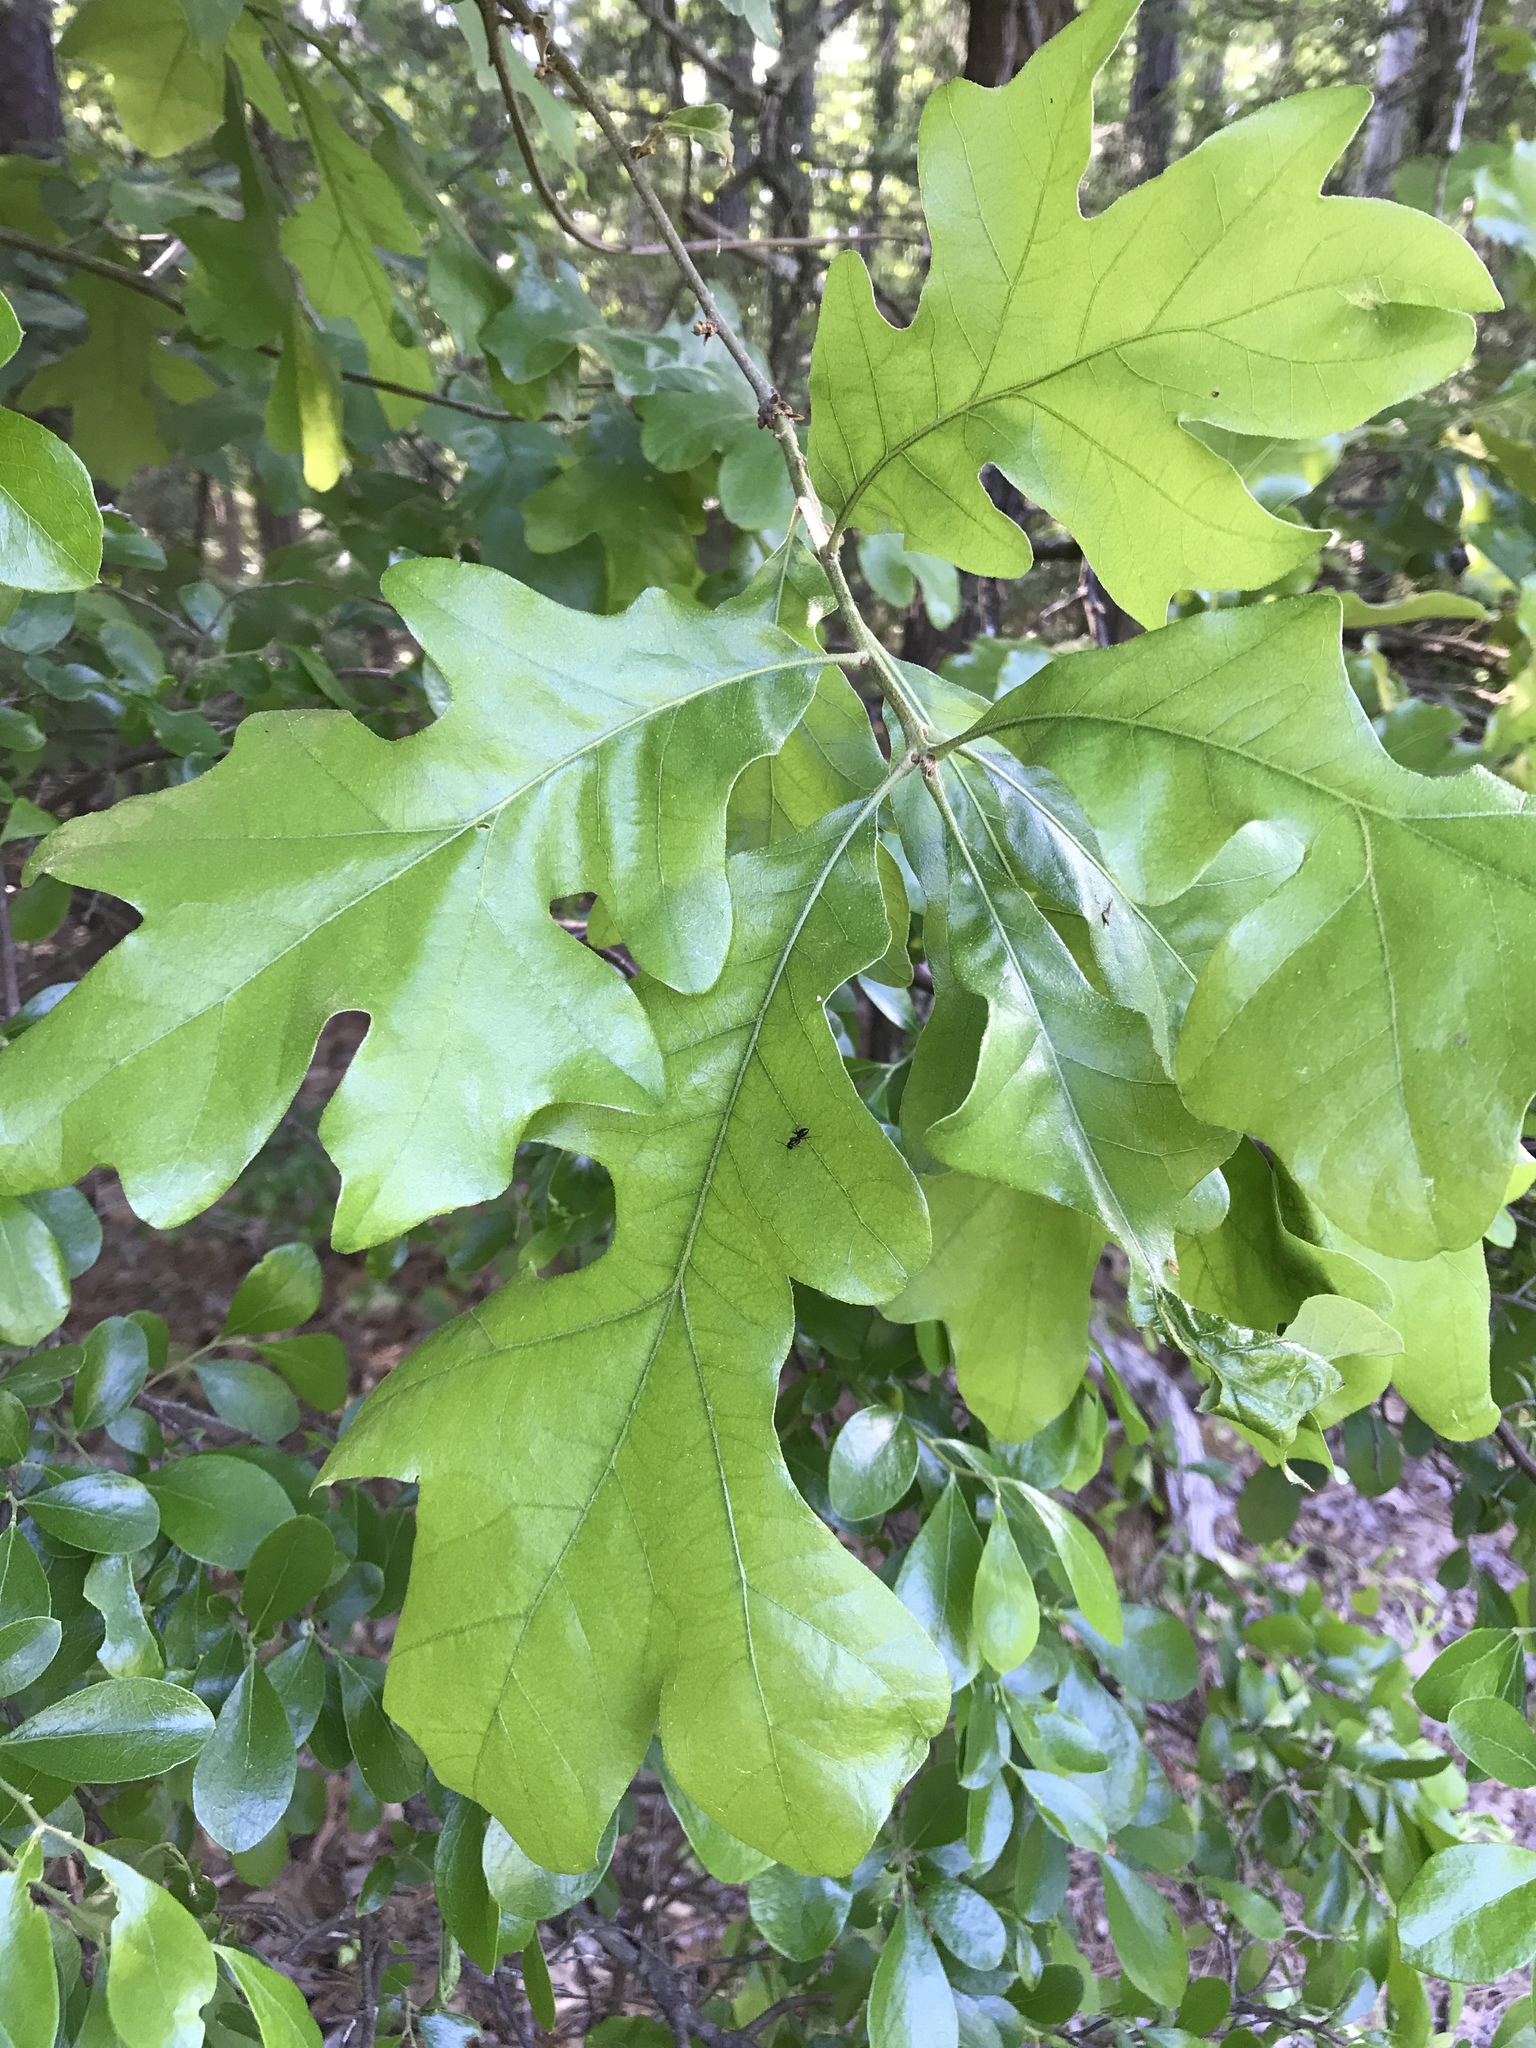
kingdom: Plantae
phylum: Tracheophyta
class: Magnoliopsida
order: Fagales
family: Fagaceae
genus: Quercus
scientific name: Quercus stellata
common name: Post oak
